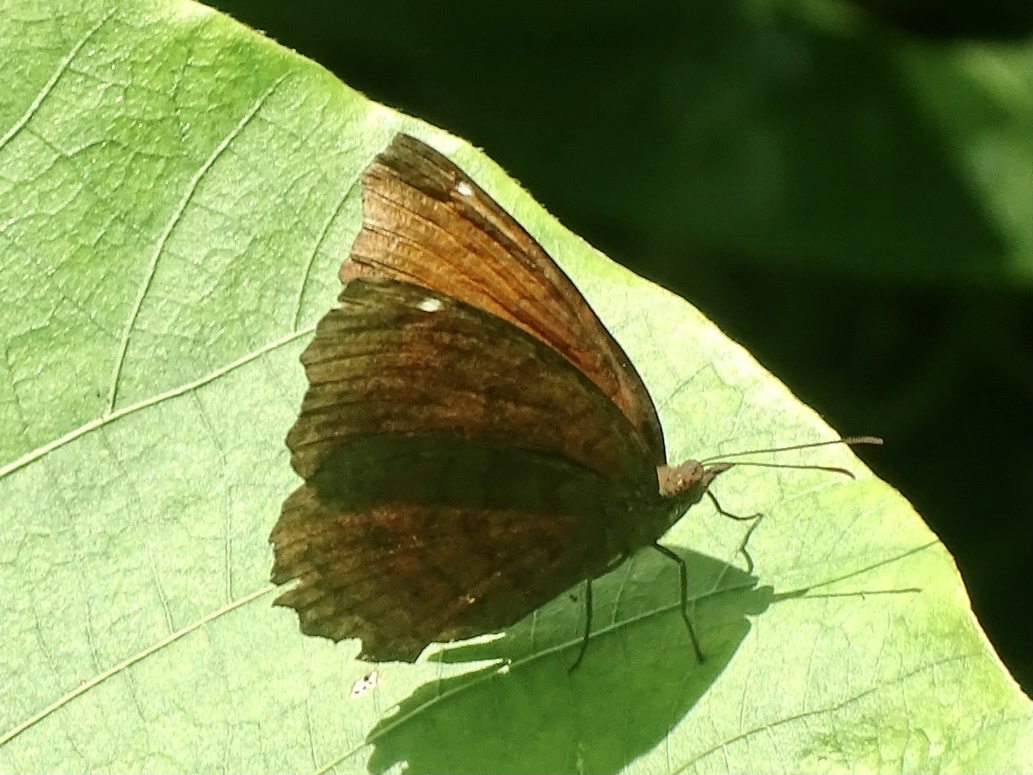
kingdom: Animalia
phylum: Arthropoda
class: Insecta
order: Lepidoptera
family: Nymphalidae
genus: Ariadne
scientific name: Ariadne ariadne
